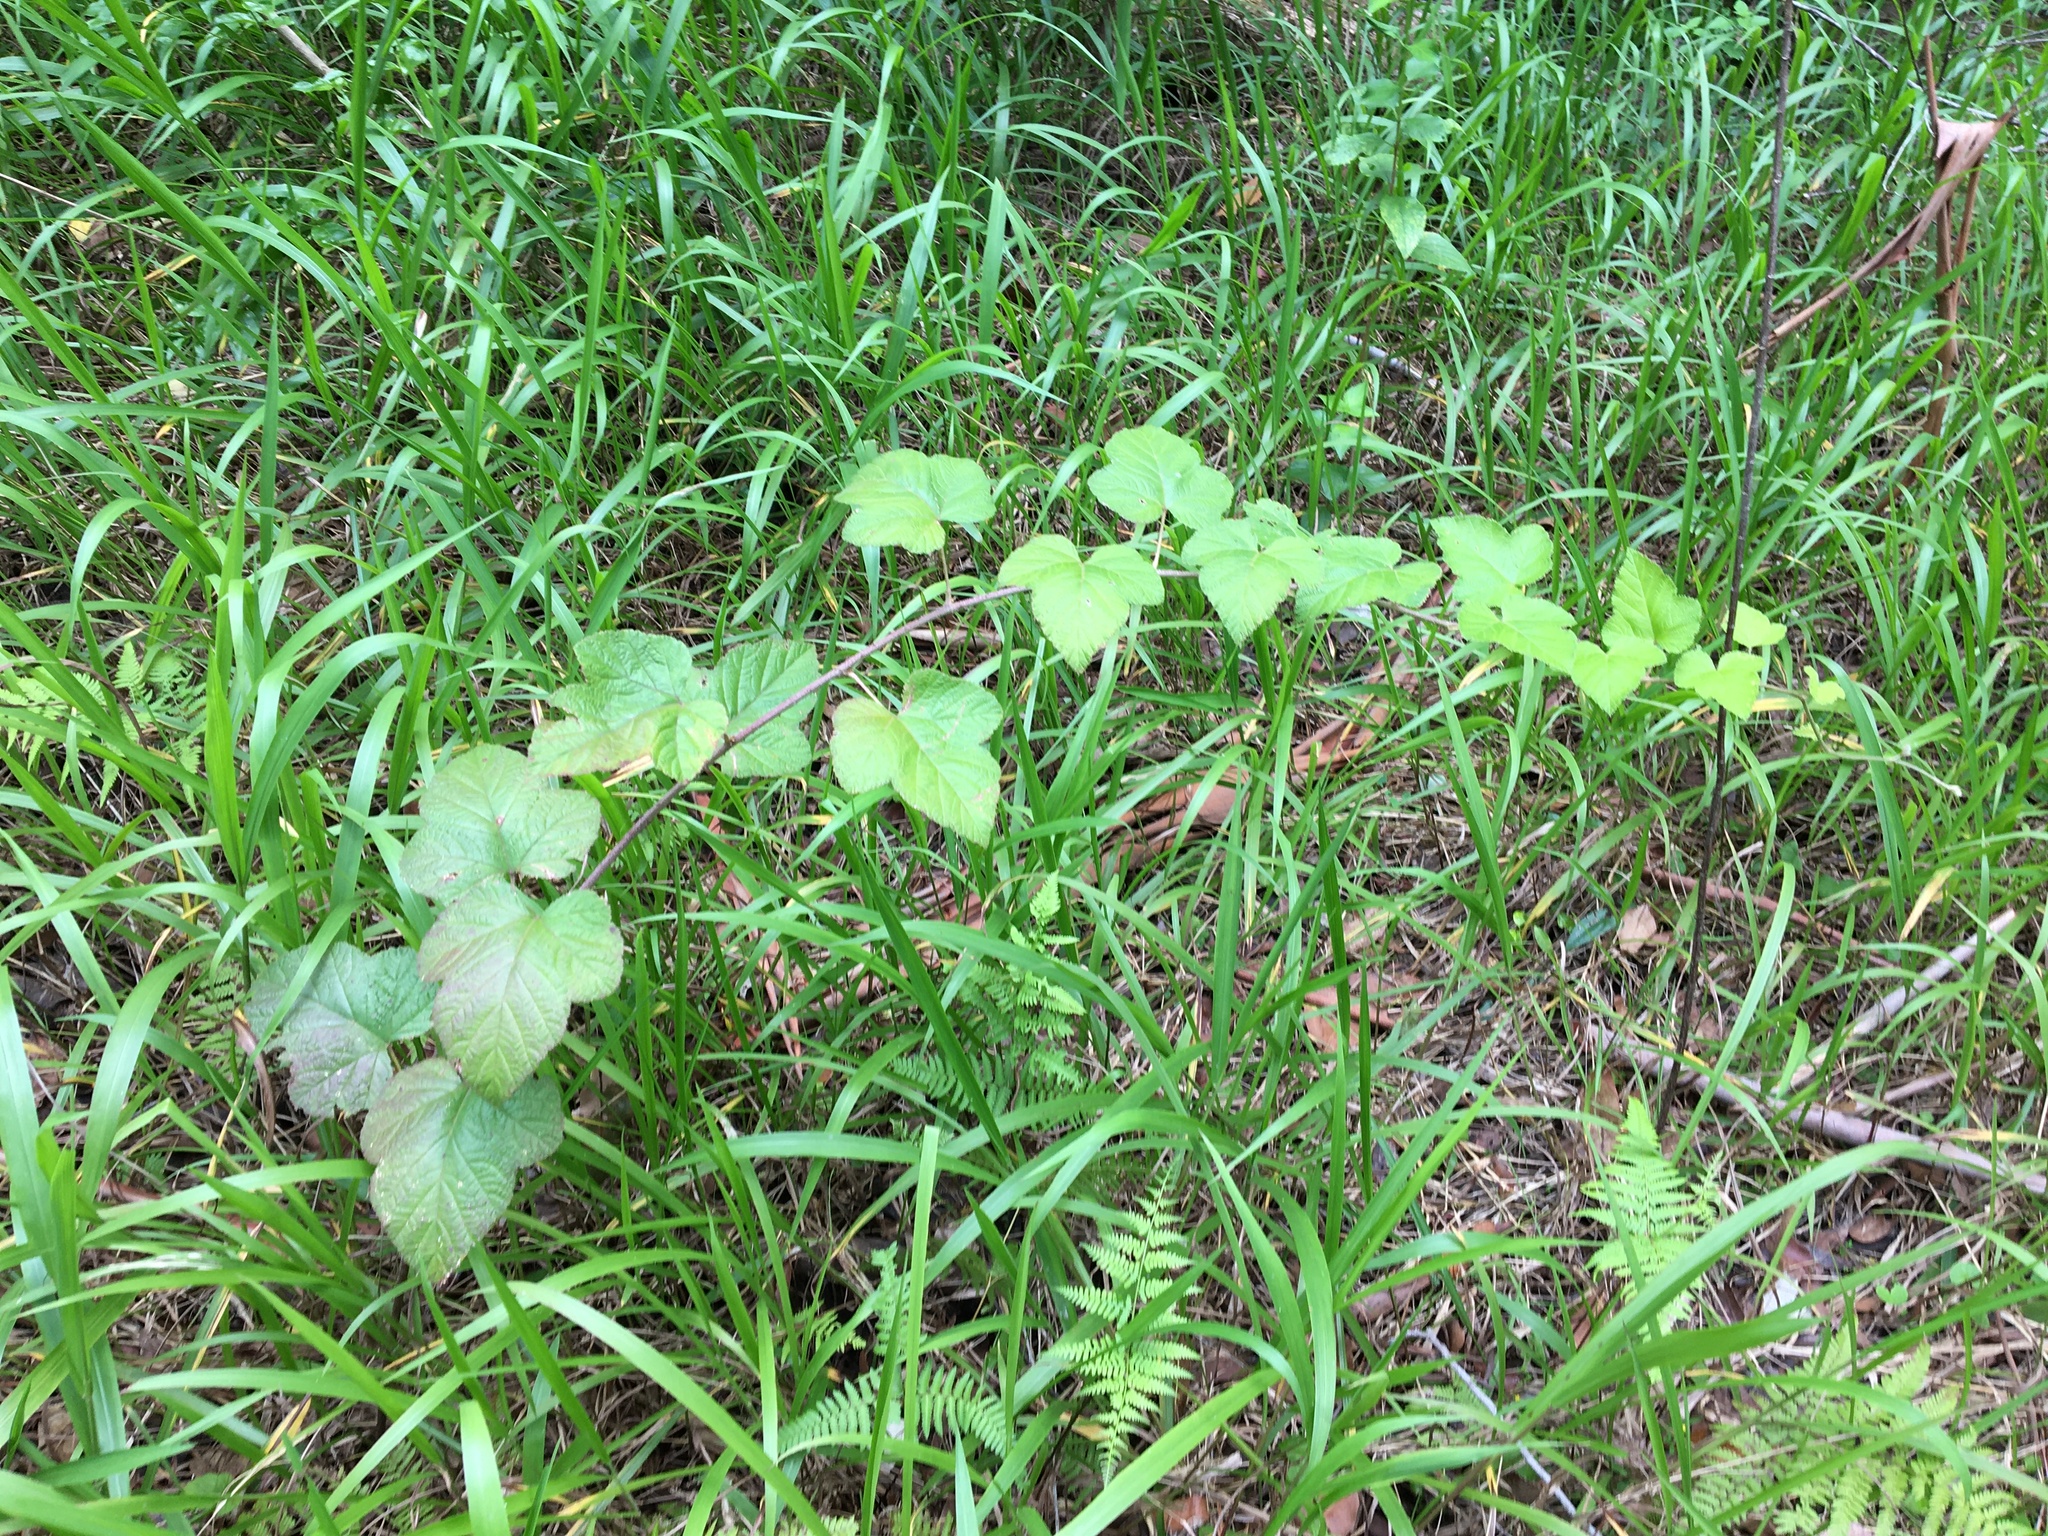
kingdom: Plantae
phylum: Tracheophyta
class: Magnoliopsida
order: Rosales
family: Rosaceae
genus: Rubus
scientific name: Rubus moluccanus
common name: Wild raspberry
